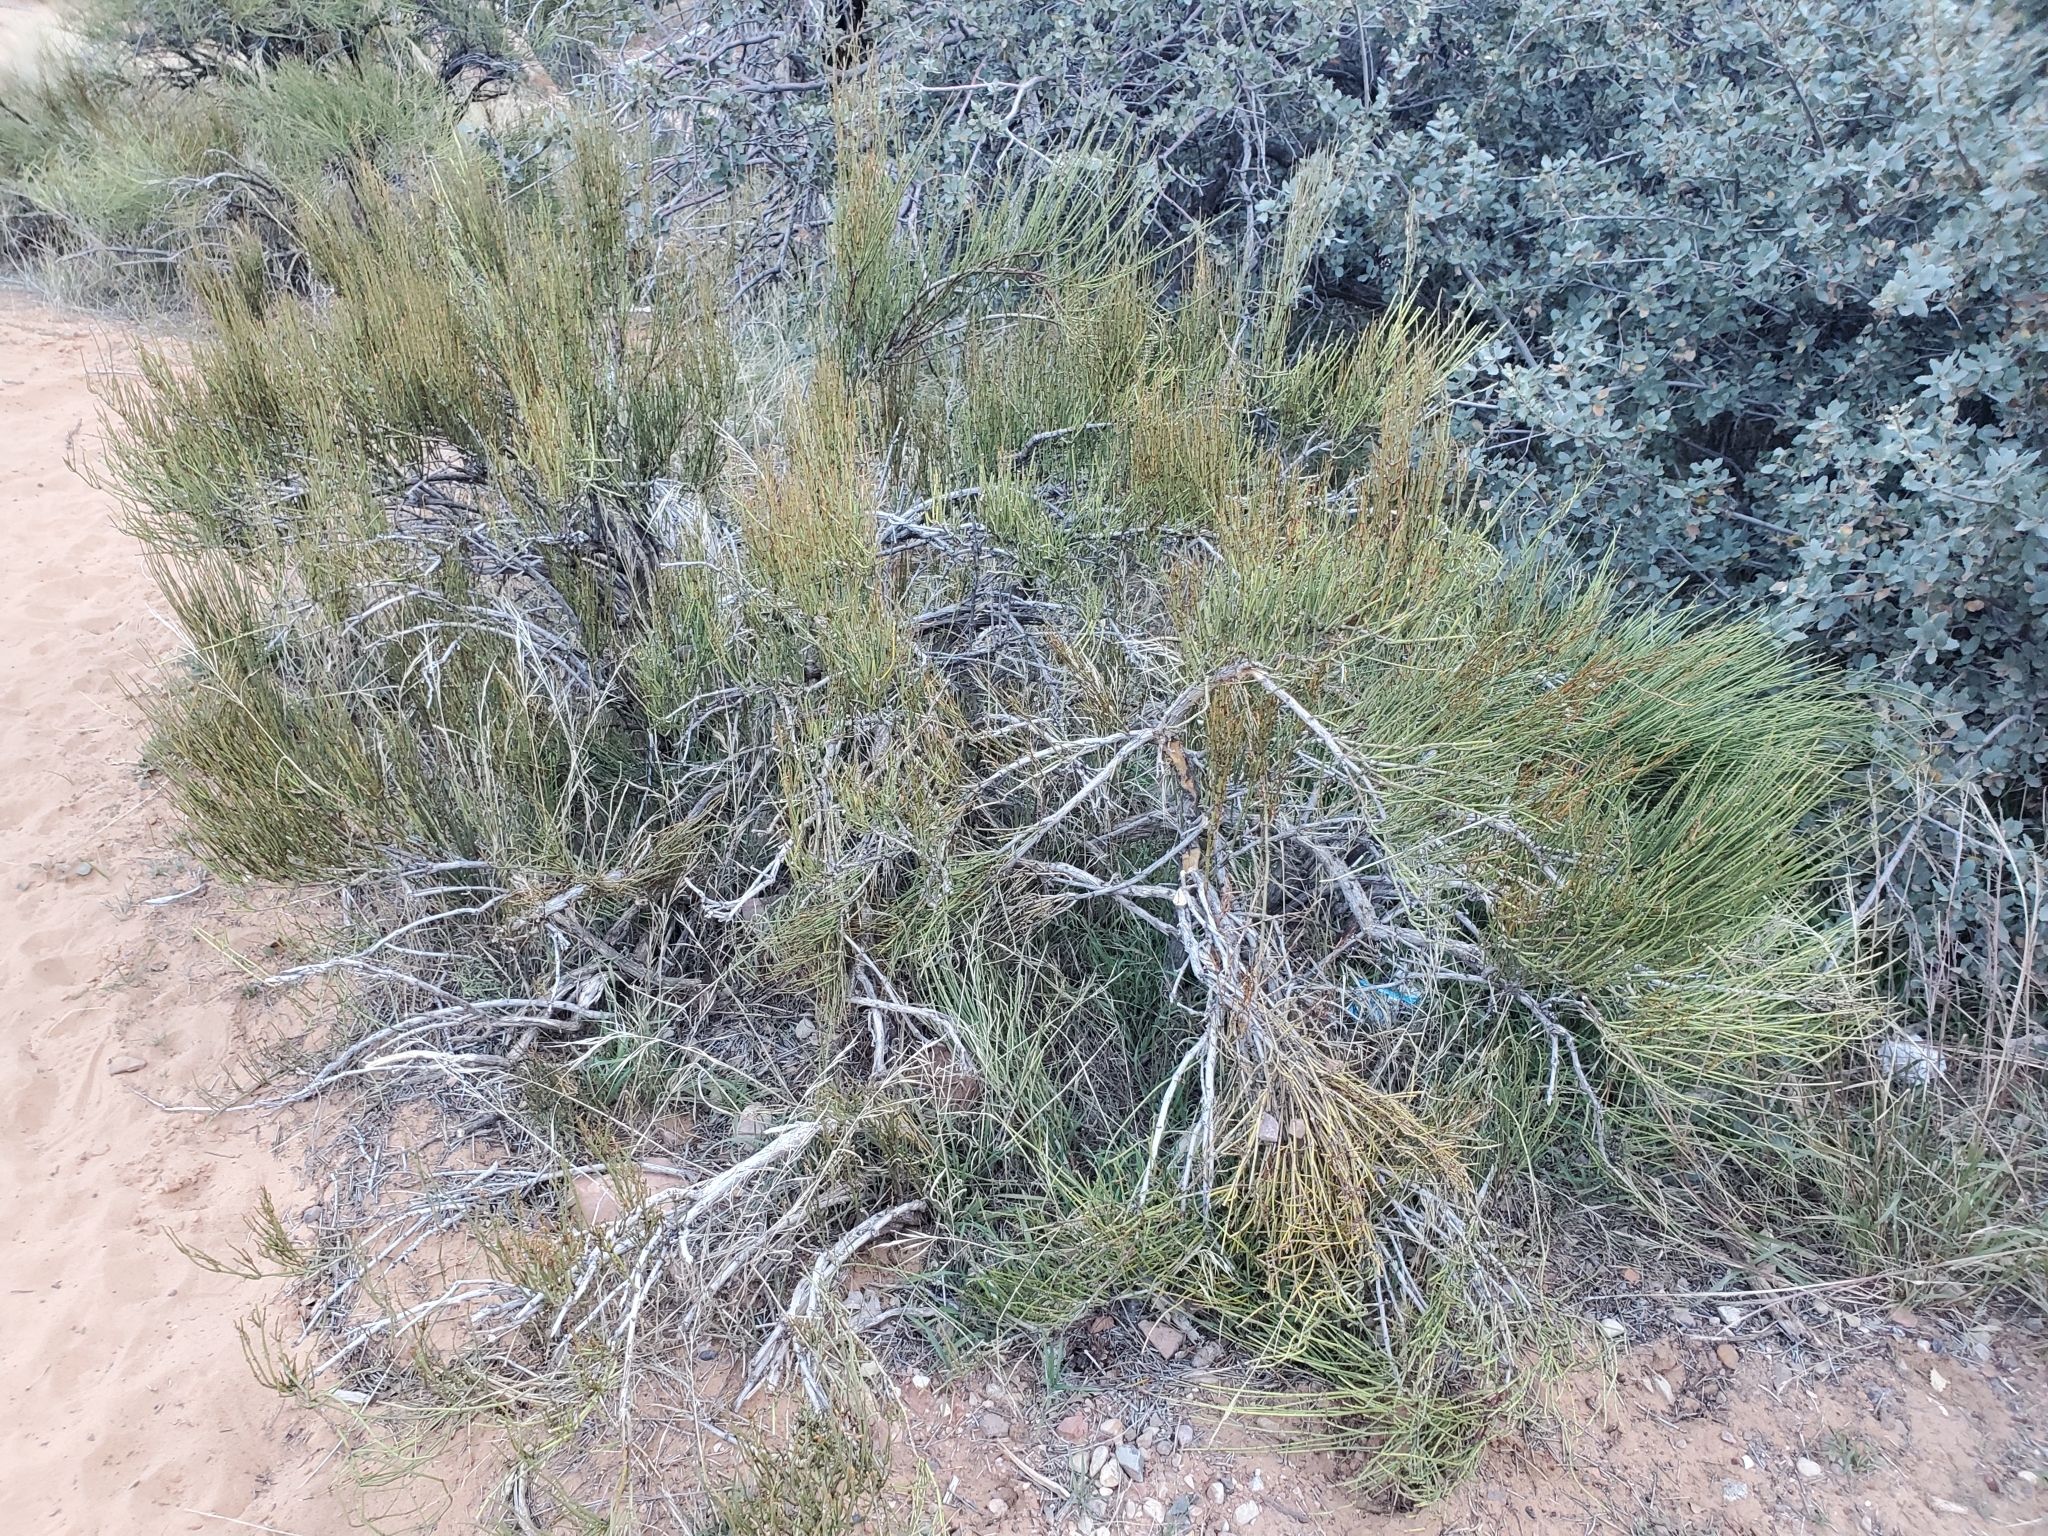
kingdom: Plantae
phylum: Tracheophyta
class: Gnetopsida
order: Ephedrales
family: Ephedraceae
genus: Ephedra
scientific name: Ephedra viridis
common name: Green ephedra
